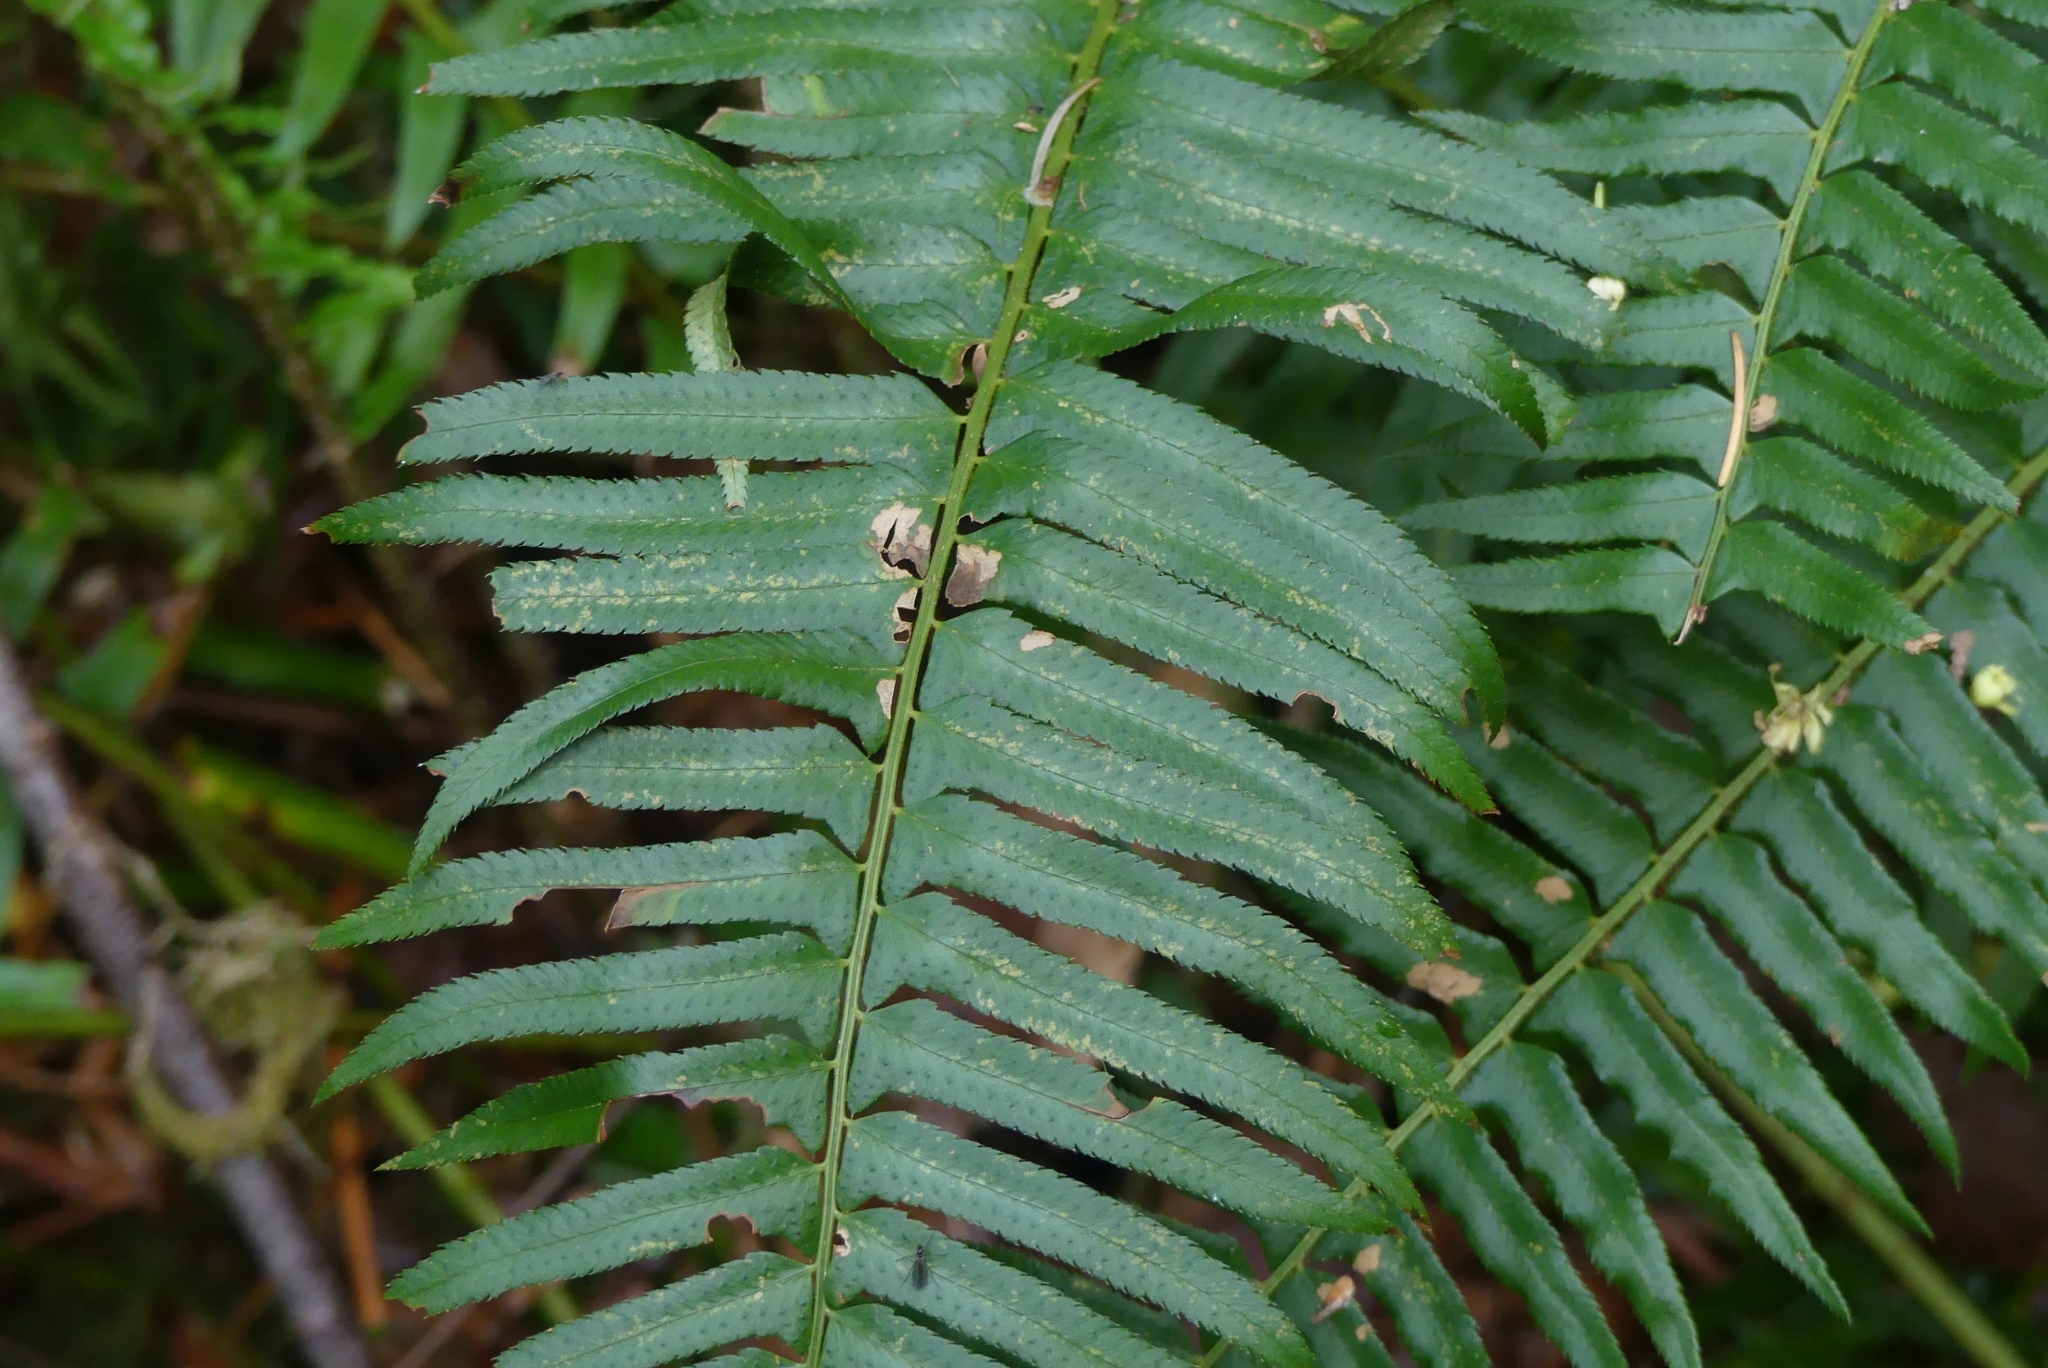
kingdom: Plantae
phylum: Tracheophyta
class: Polypodiopsida
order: Polypodiales
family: Dryopteridaceae
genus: Polystichum
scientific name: Polystichum munitum
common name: Western sword-fern
